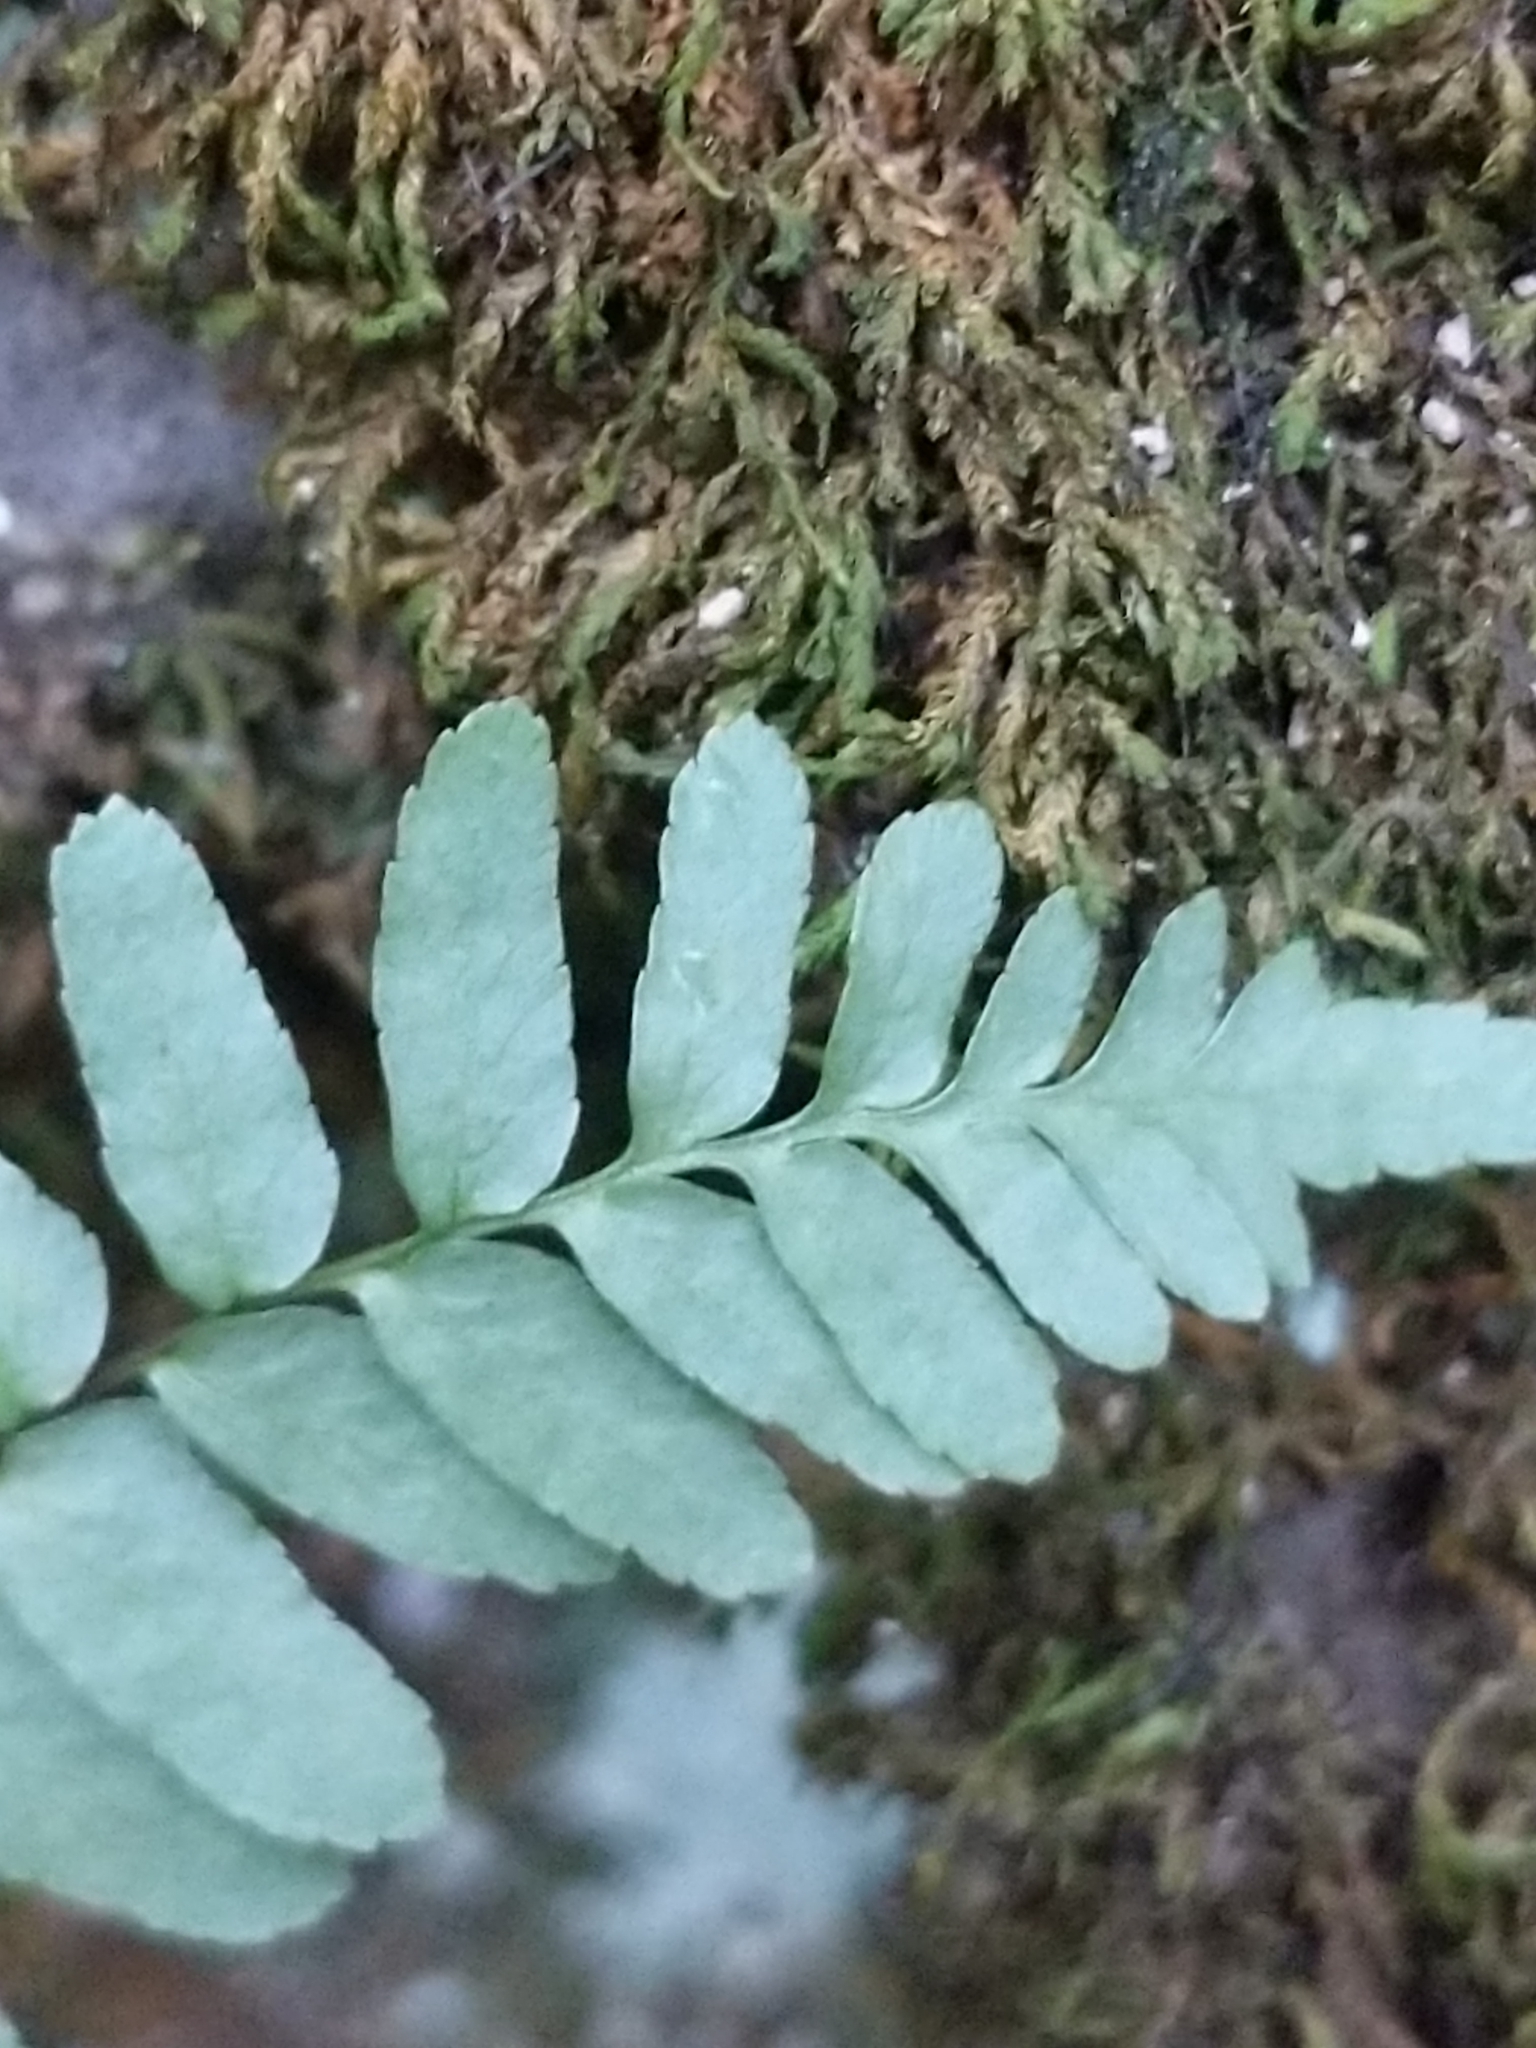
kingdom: Plantae
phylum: Tracheophyta
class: Polypodiopsida
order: Polypodiales
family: Aspleniaceae
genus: Asplenium
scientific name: Asplenium platyneuron
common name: Ebony spleenwort
